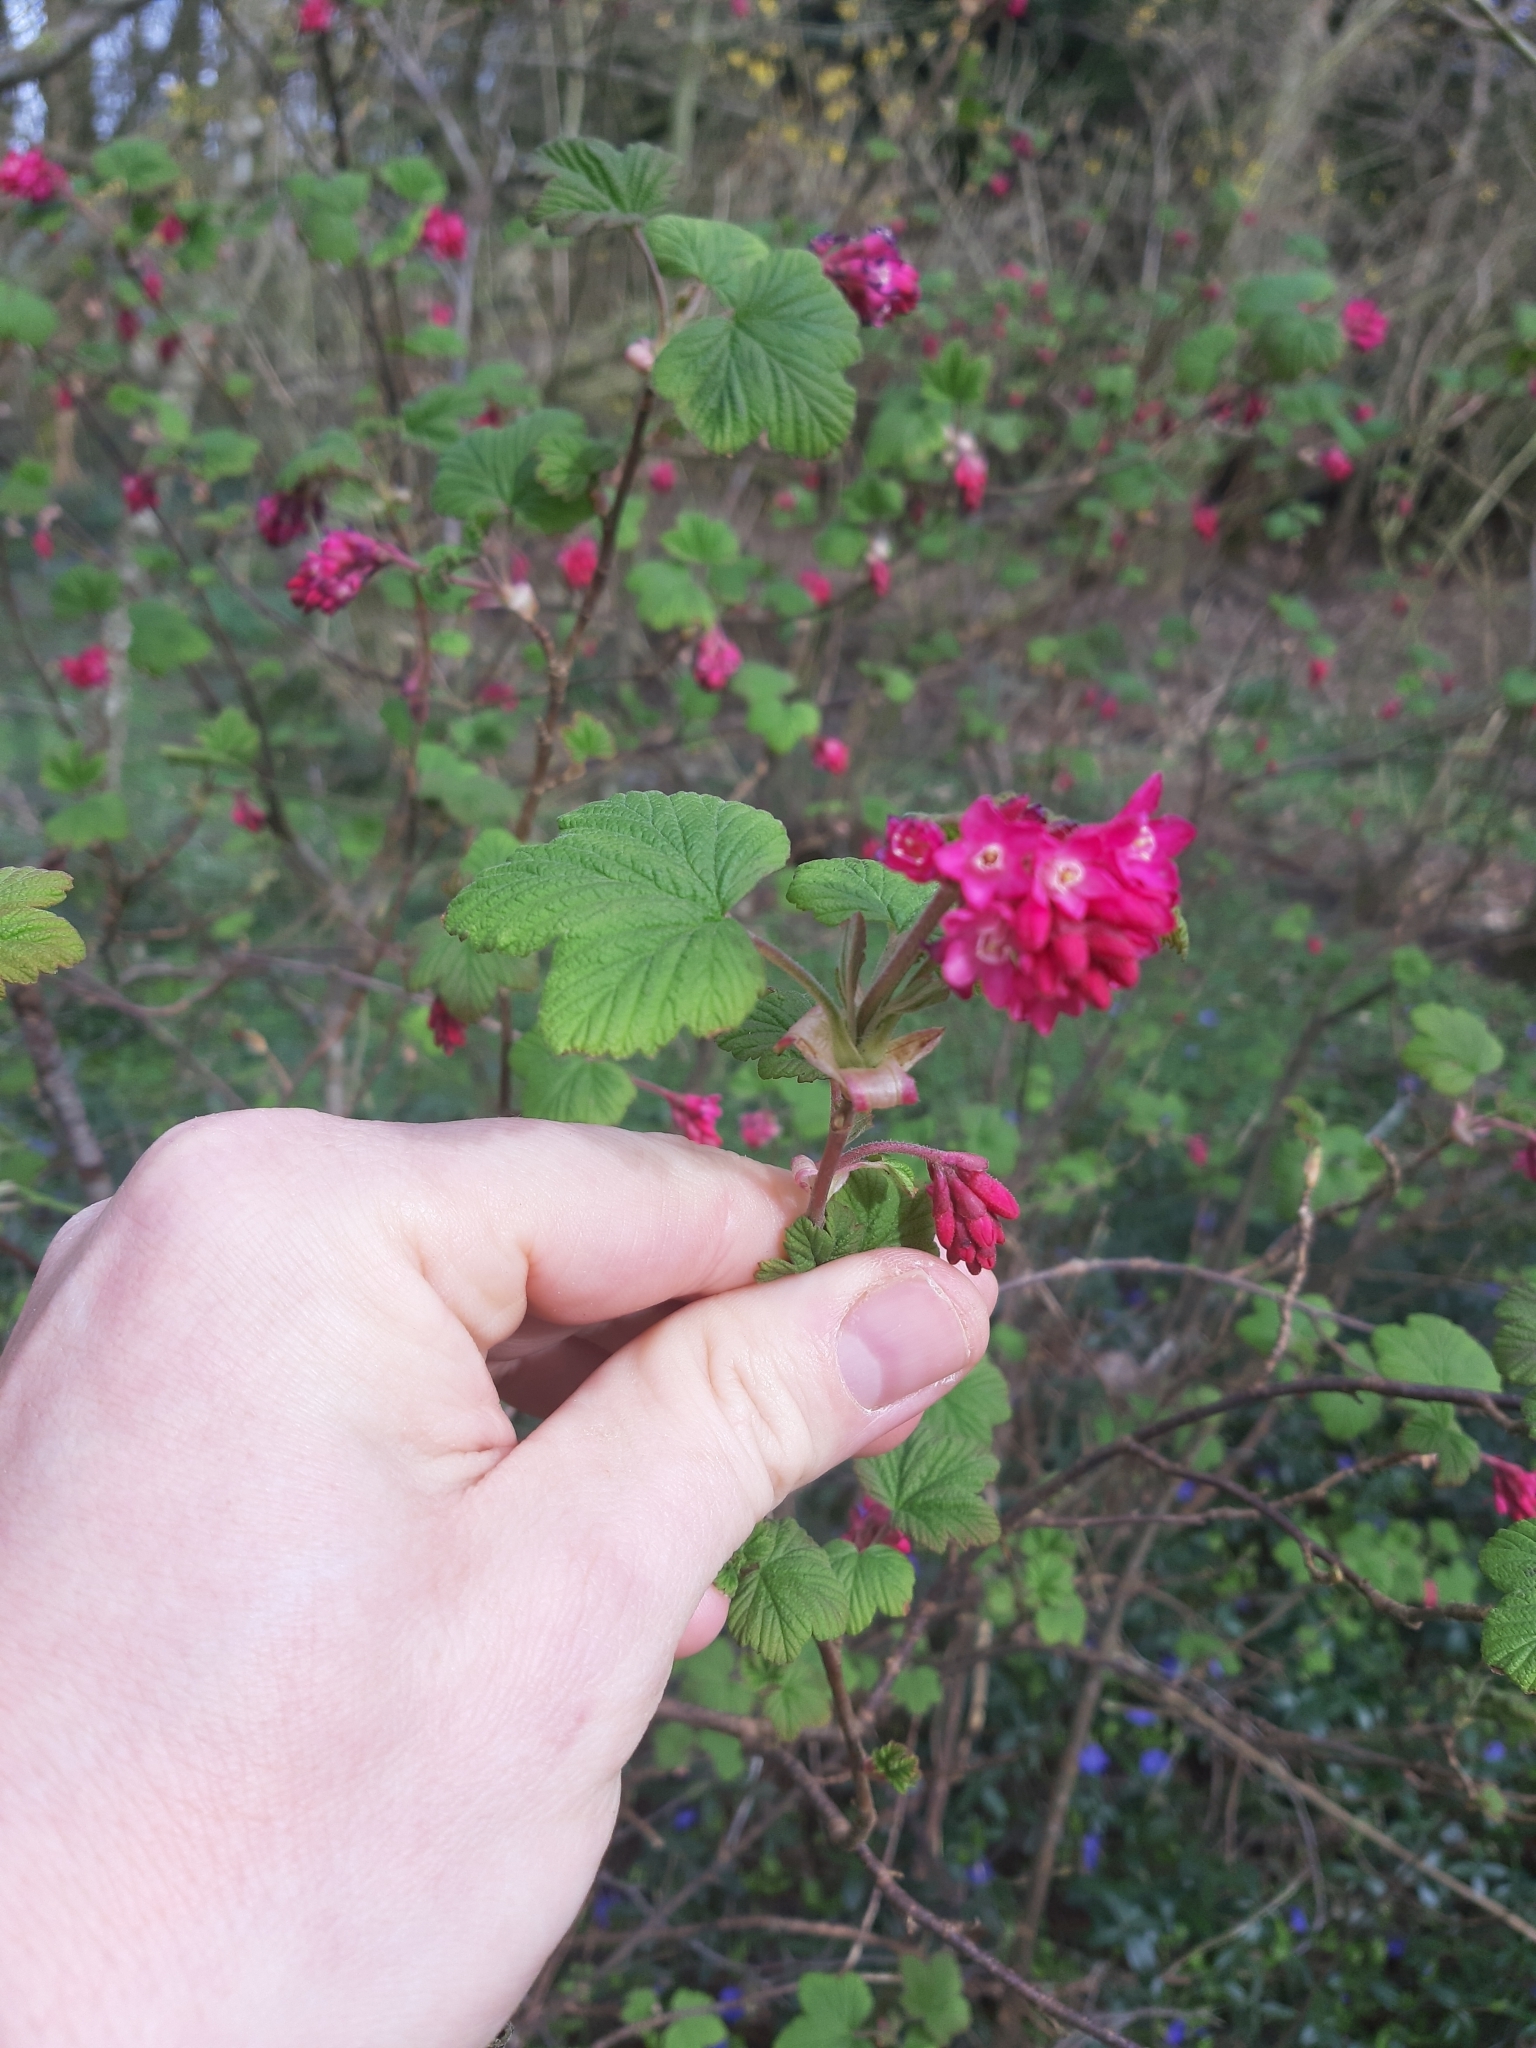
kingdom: Plantae
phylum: Tracheophyta
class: Magnoliopsida
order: Saxifragales
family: Grossulariaceae
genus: Ribes
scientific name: Ribes sanguineum
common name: Flowering currant
